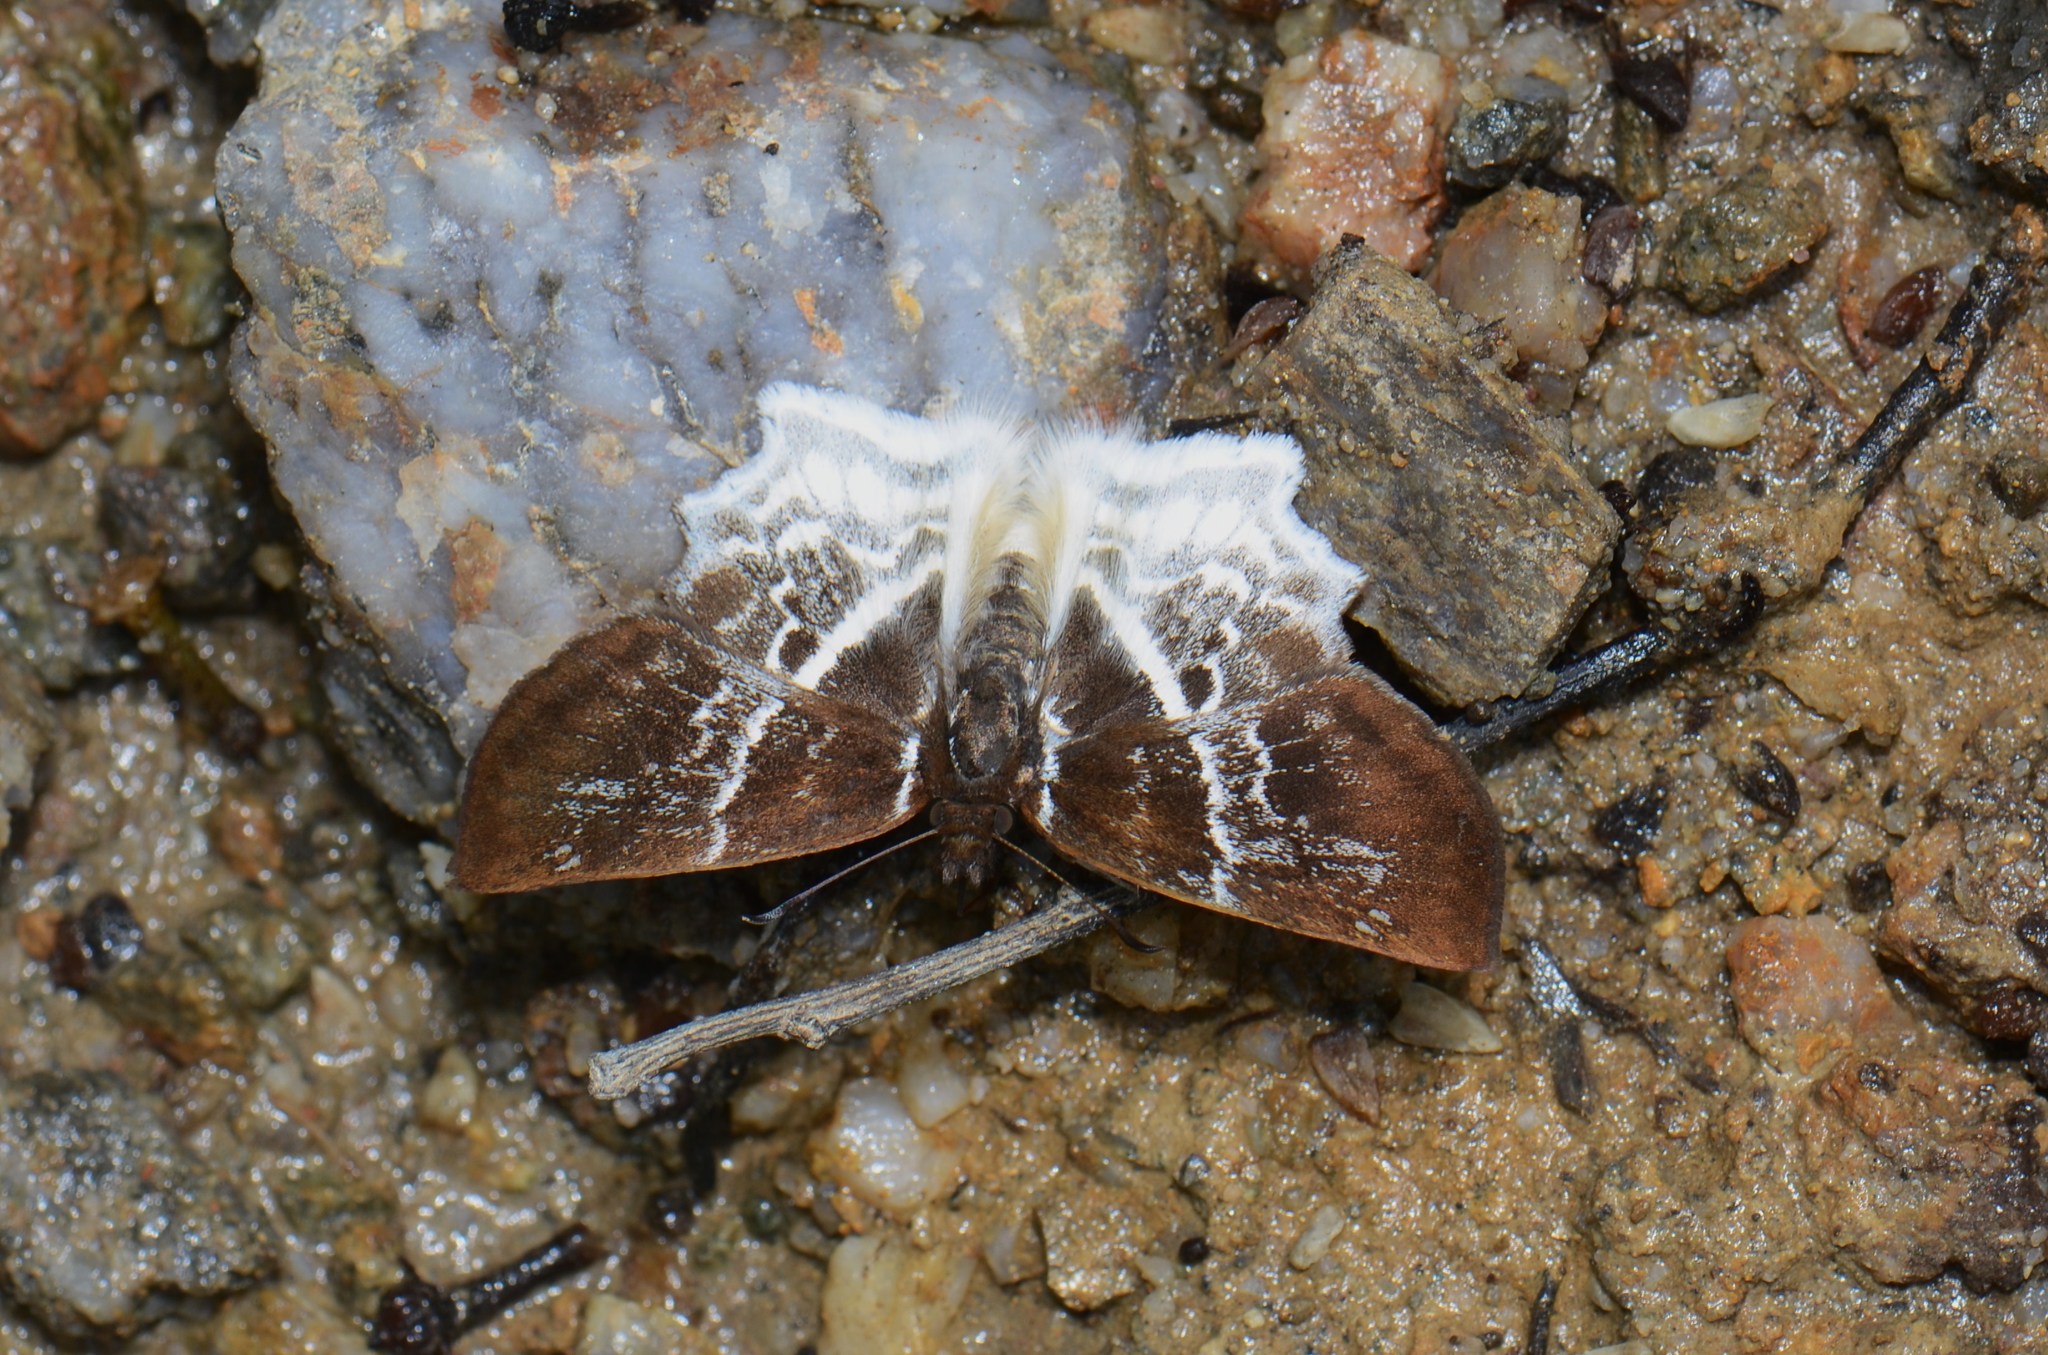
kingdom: Animalia
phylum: Arthropoda
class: Insecta
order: Lepidoptera
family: Hesperiidae
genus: Odontoptilum
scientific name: Odontoptilum pygela
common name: Banded angle
